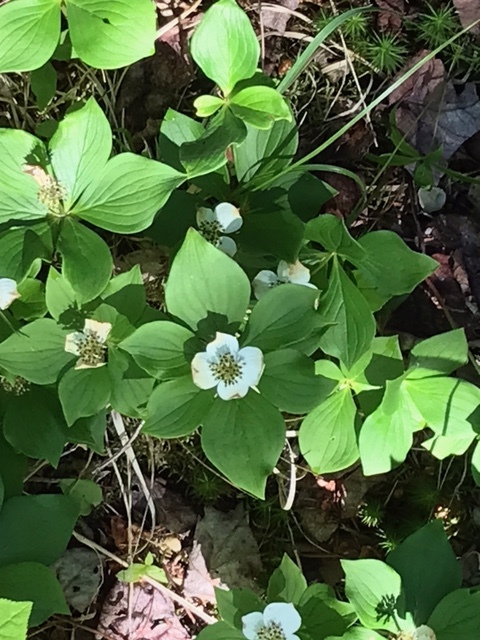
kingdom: Plantae
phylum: Tracheophyta
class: Magnoliopsida
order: Cornales
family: Cornaceae
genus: Cornus
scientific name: Cornus canadensis
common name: Creeping dogwood
